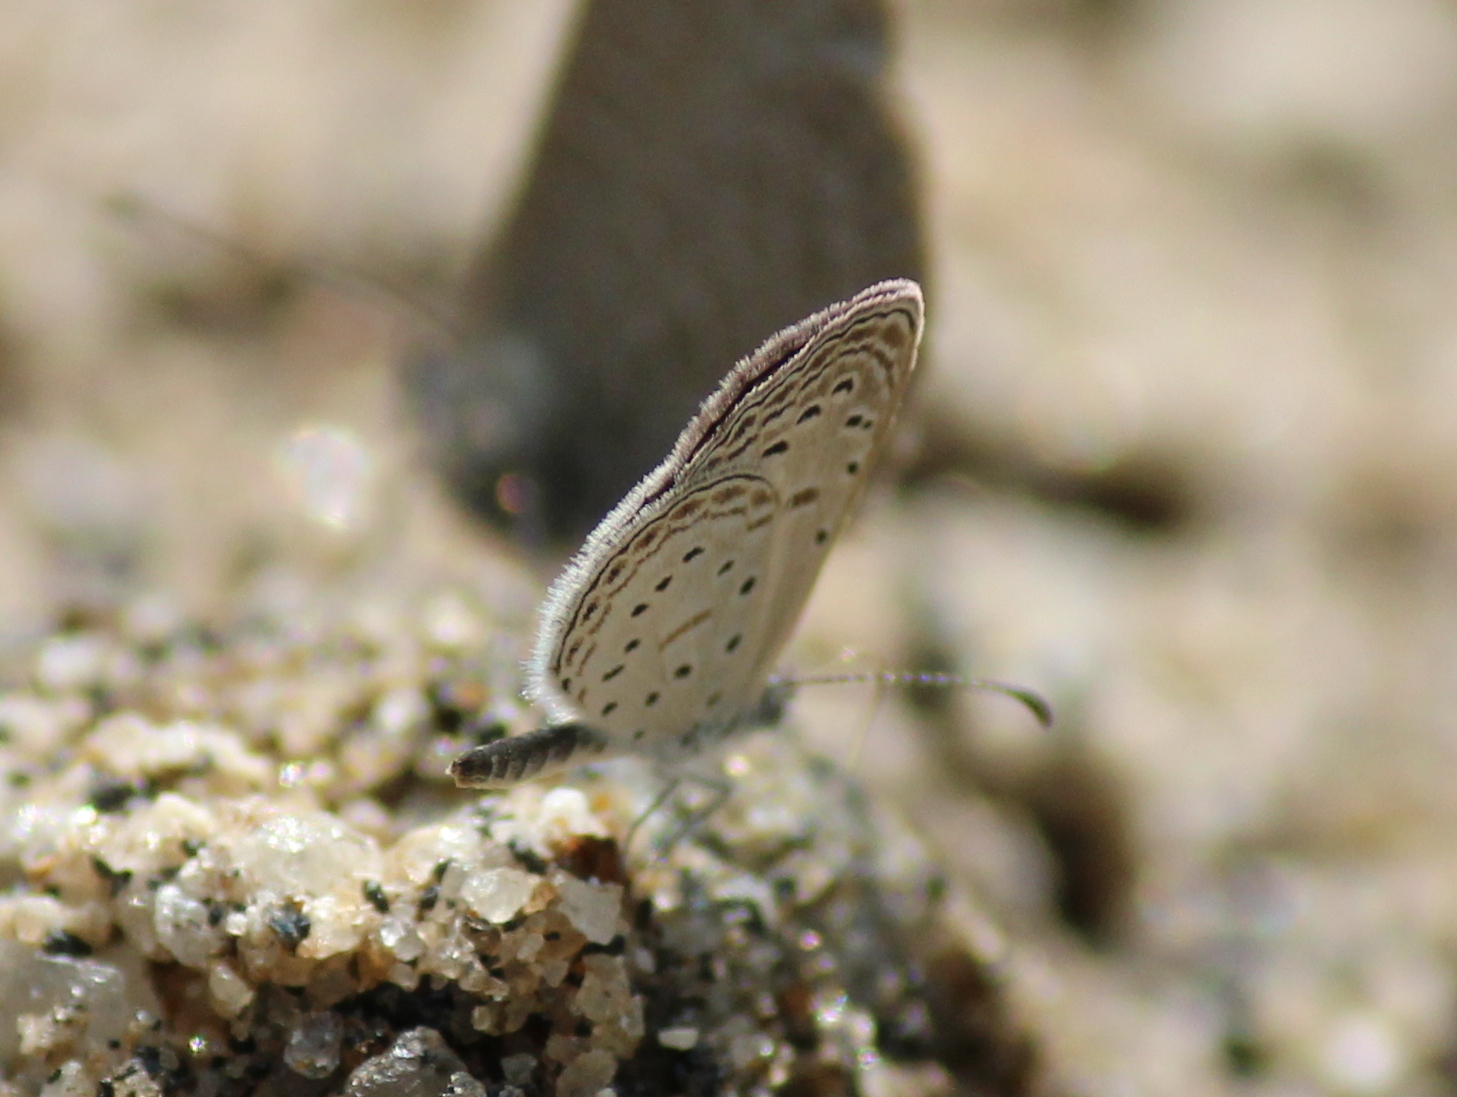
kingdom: Animalia
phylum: Arthropoda
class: Insecta
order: Lepidoptera
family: Lycaenidae
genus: Zizula
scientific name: Zizula hylax
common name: Gaika blue
